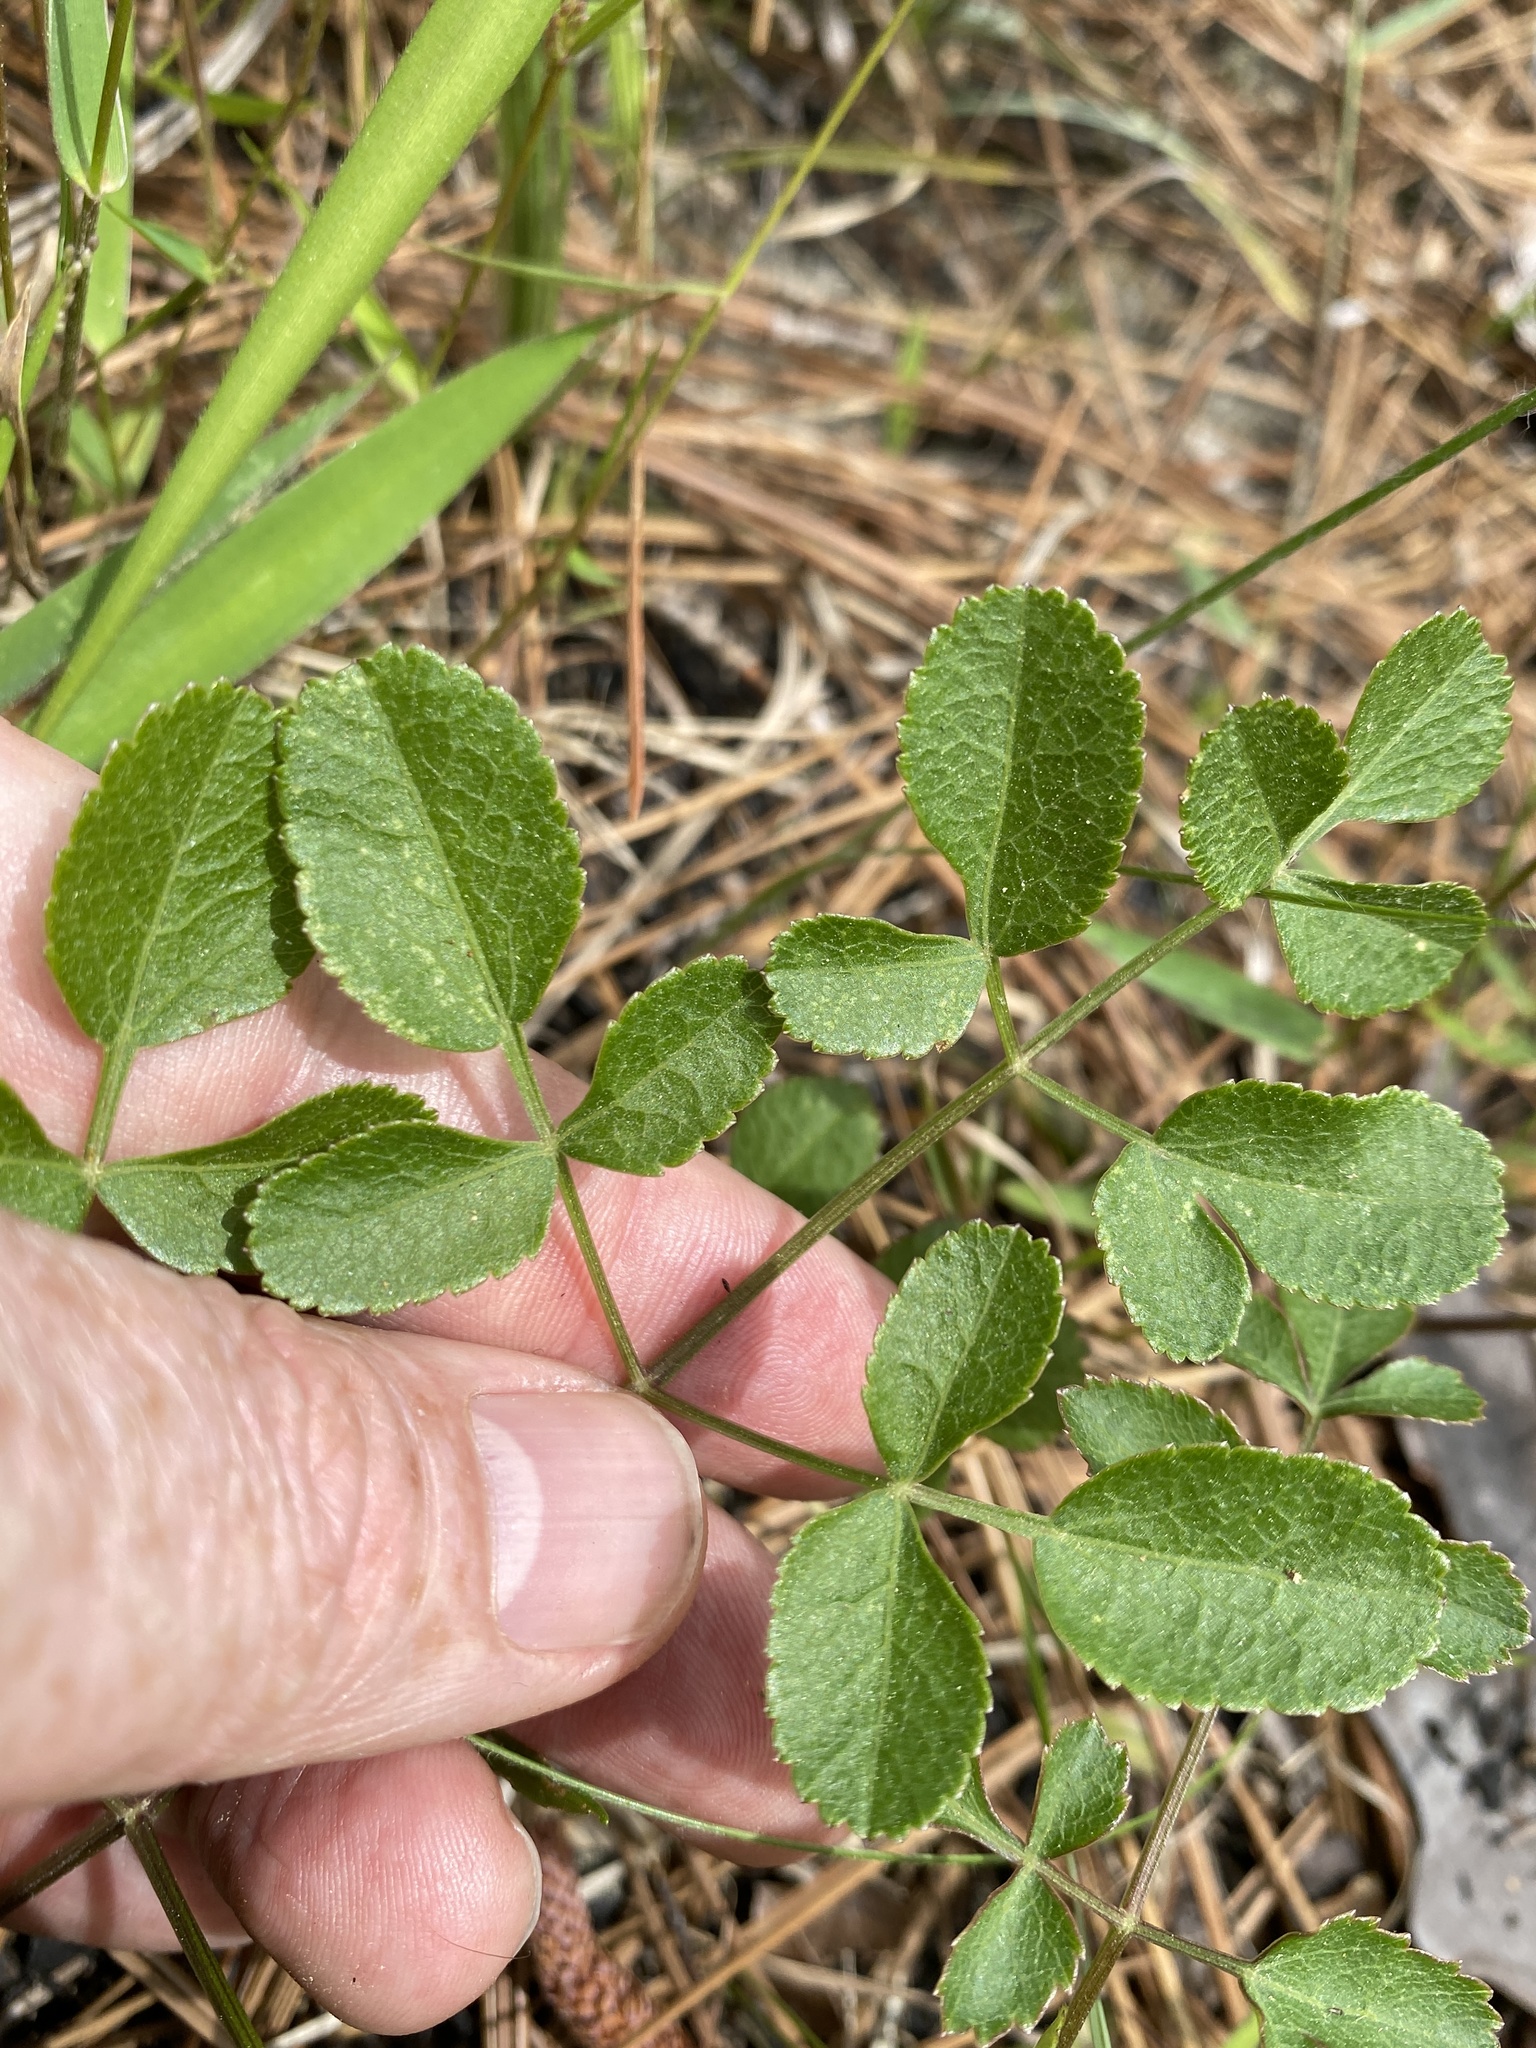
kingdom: Plantae
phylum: Tracheophyta
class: Magnoliopsida
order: Apiales
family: Apiaceae
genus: Angelica
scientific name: Angelica venenosa
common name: Hairy angelica
